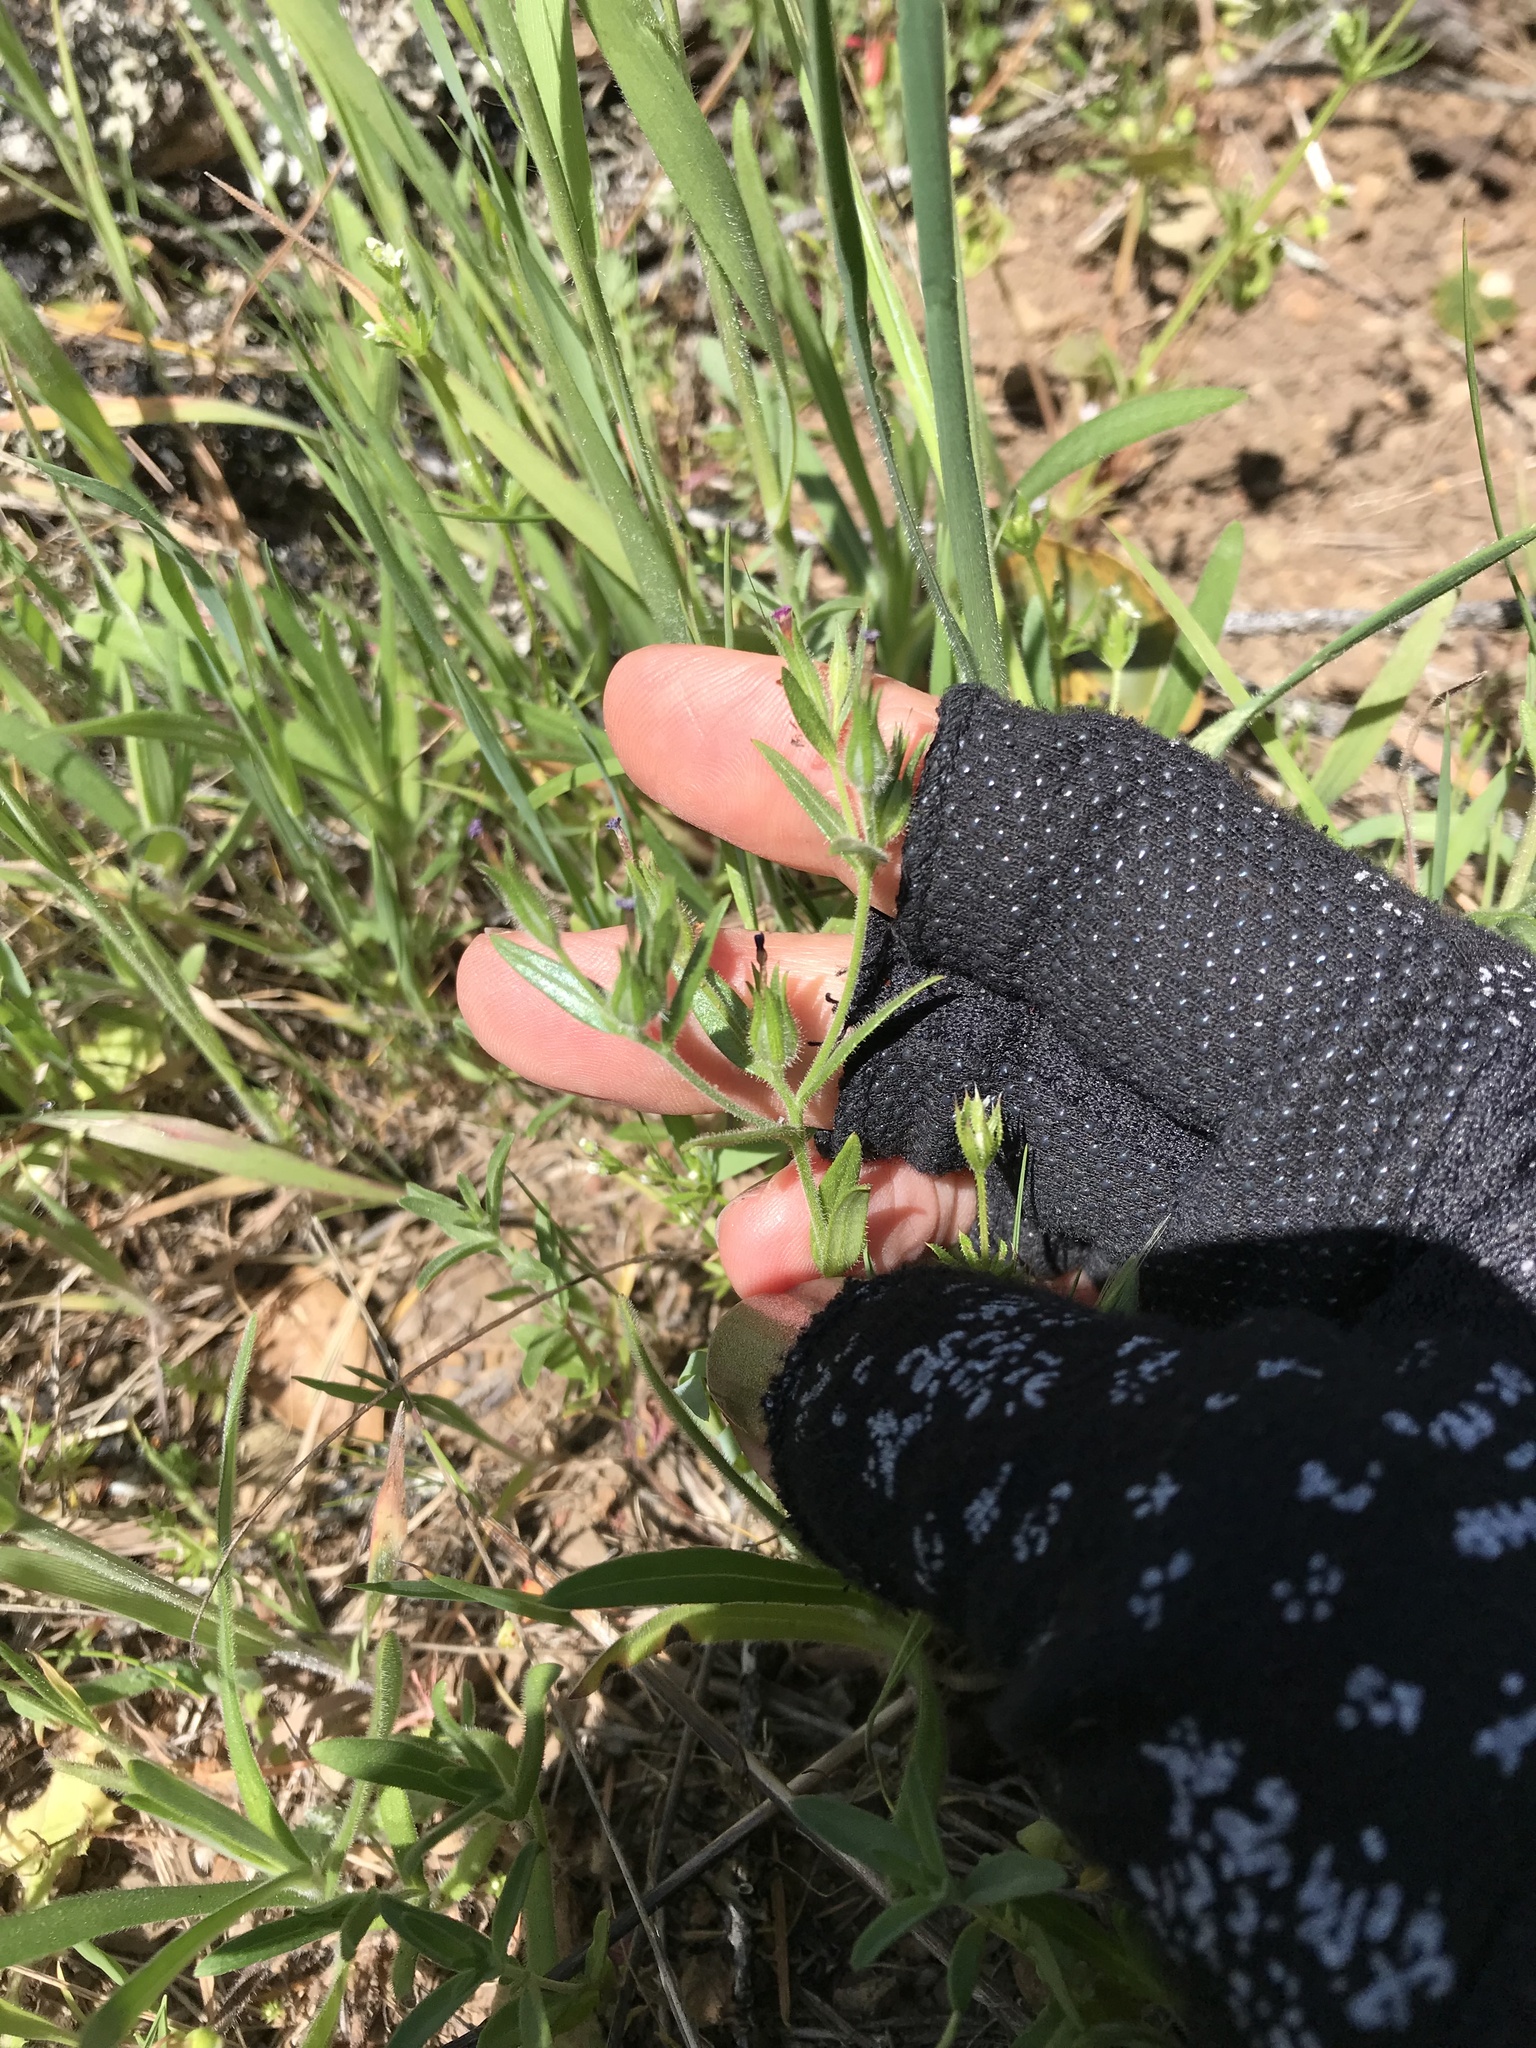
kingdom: Plantae
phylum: Tracheophyta
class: Magnoliopsida
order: Ericales
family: Polemoniaceae
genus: Phlox
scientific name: Phlox gracilis
